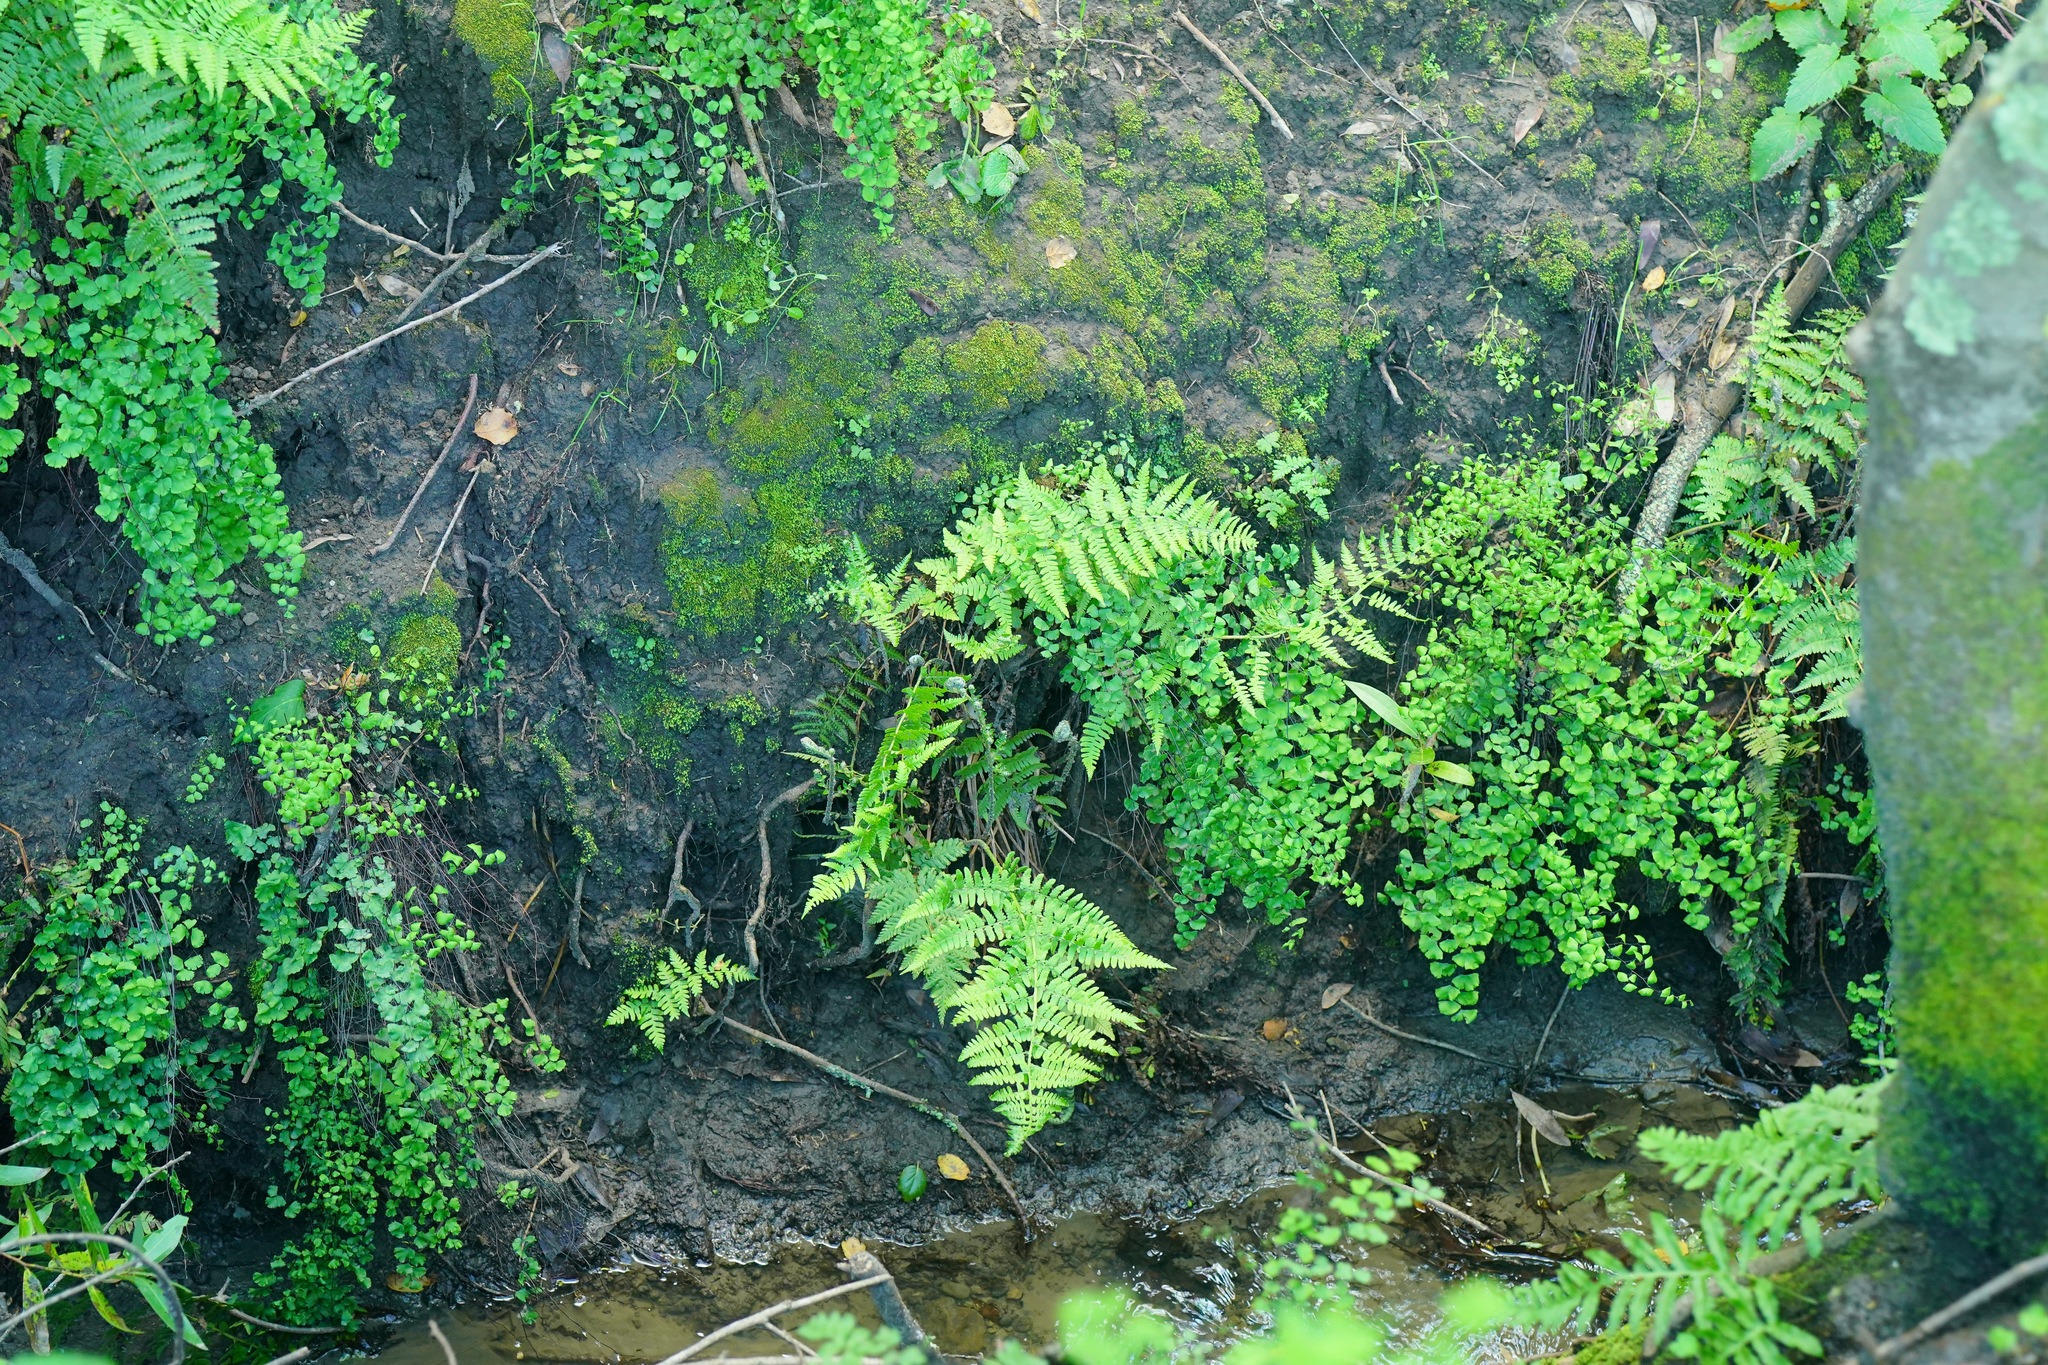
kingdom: Plantae
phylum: Tracheophyta
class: Polypodiopsida
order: Polypodiales
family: Pteridaceae
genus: Adiantum
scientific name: Adiantum jordanii
